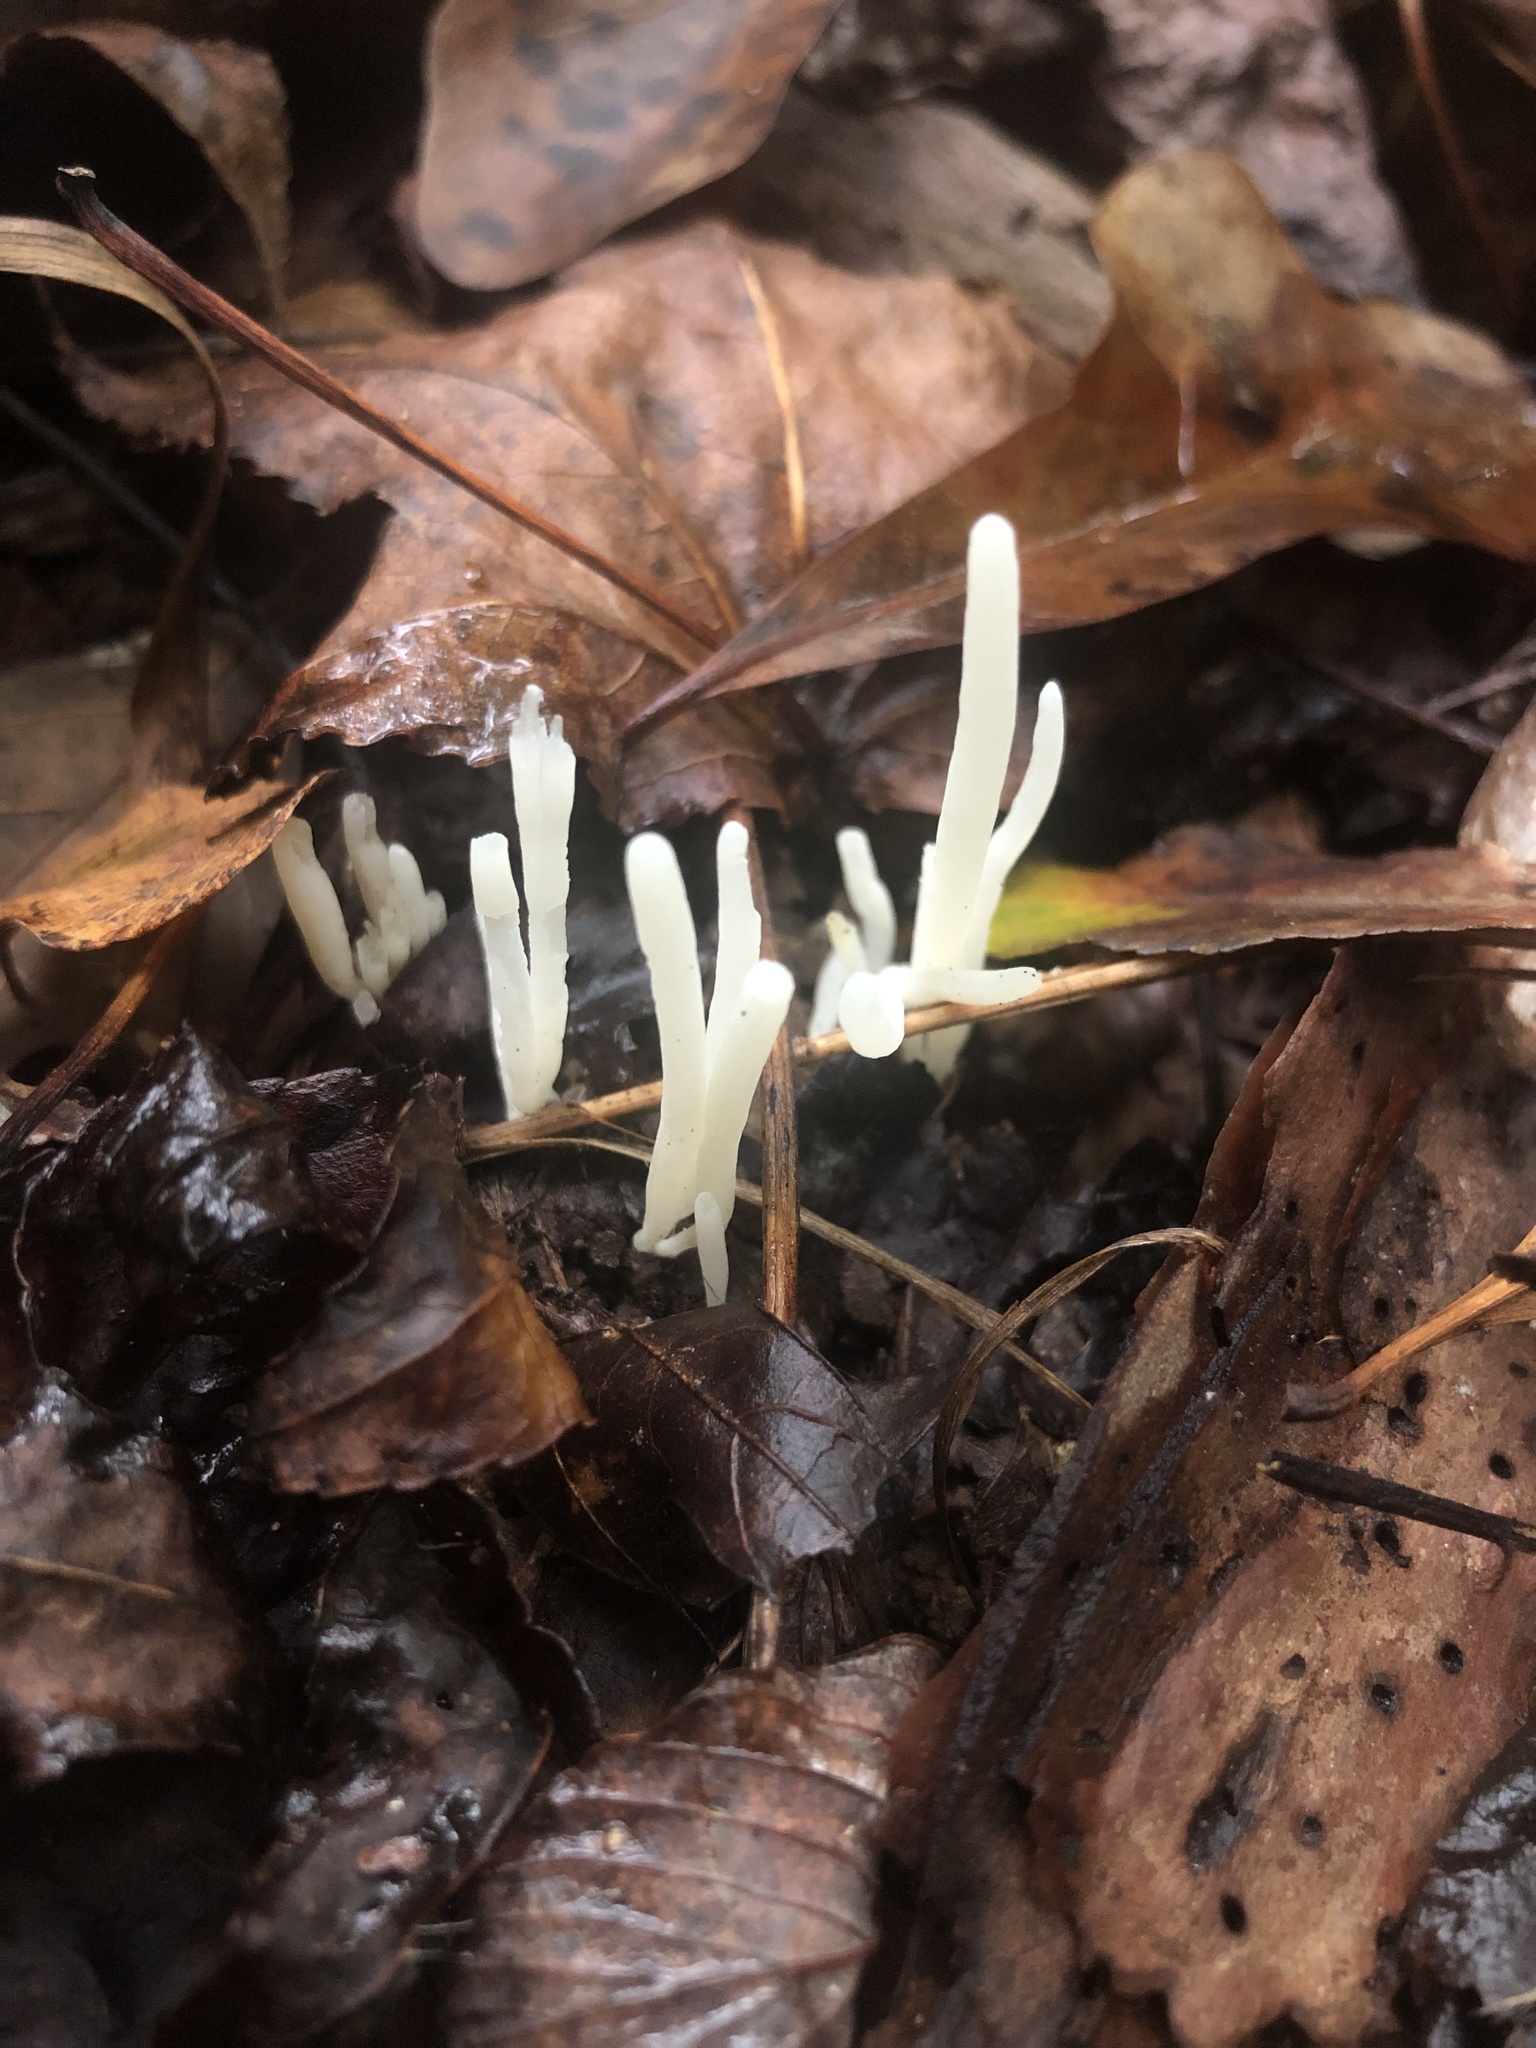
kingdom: Fungi
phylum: Basidiomycota
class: Agaricomycetes
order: Agaricales
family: Clavariaceae
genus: Clavaria
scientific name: Clavaria fragilis
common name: White spindles
